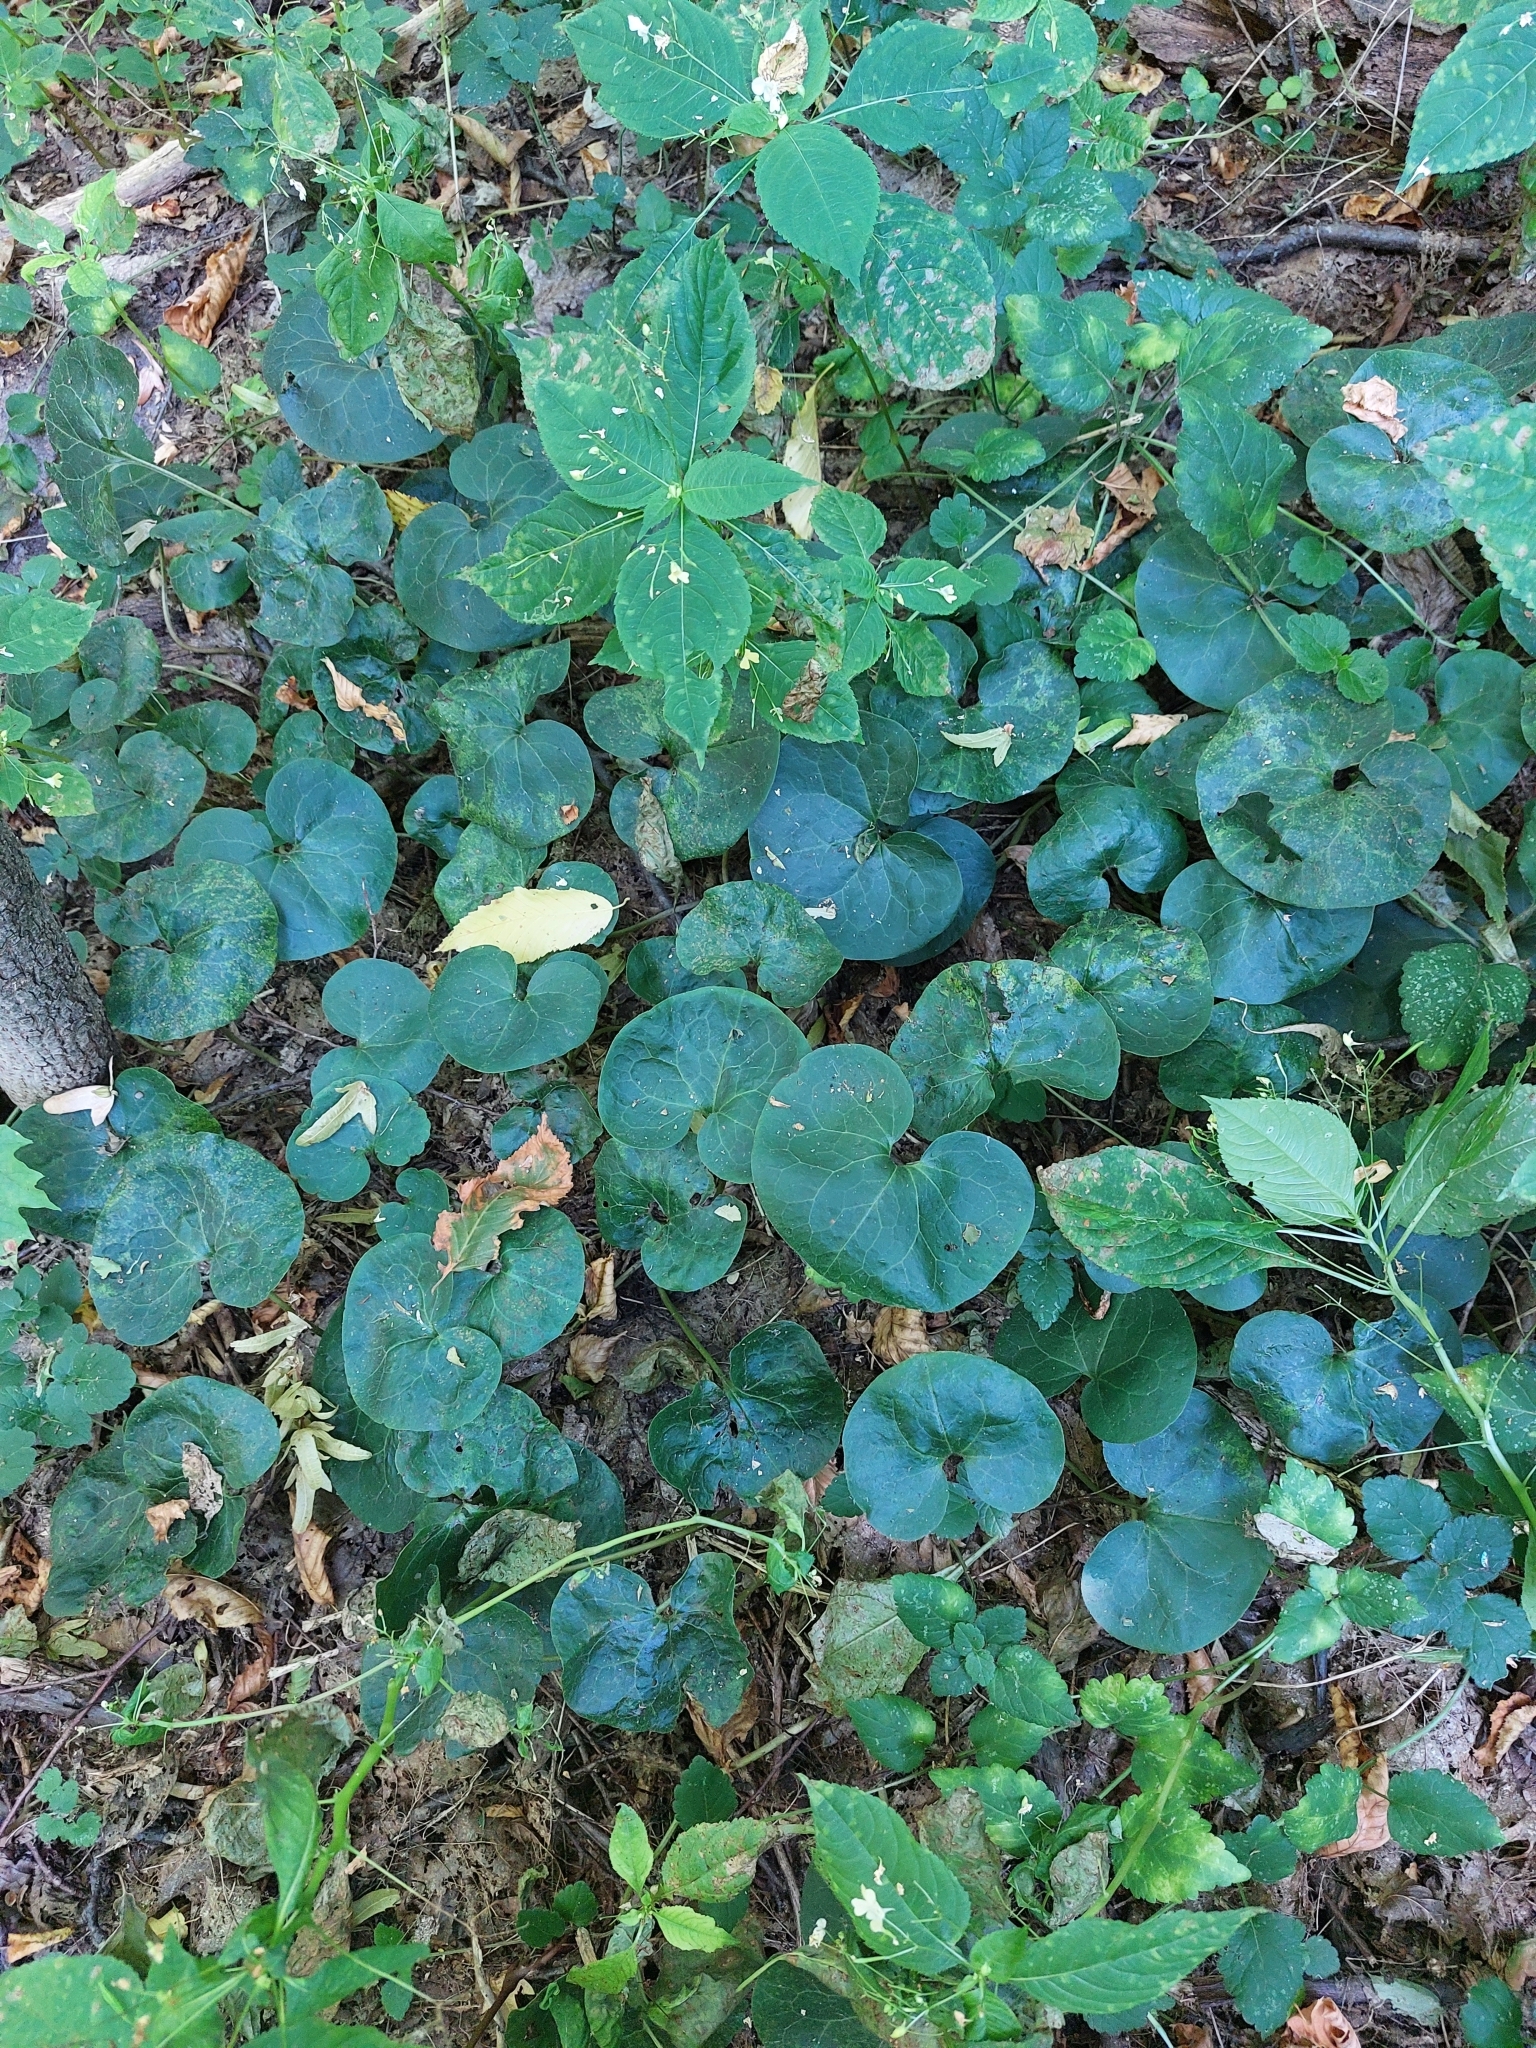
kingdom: Plantae
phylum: Tracheophyta
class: Magnoliopsida
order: Piperales
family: Aristolochiaceae
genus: Asarum
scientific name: Asarum europaeum
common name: Asarabacca
